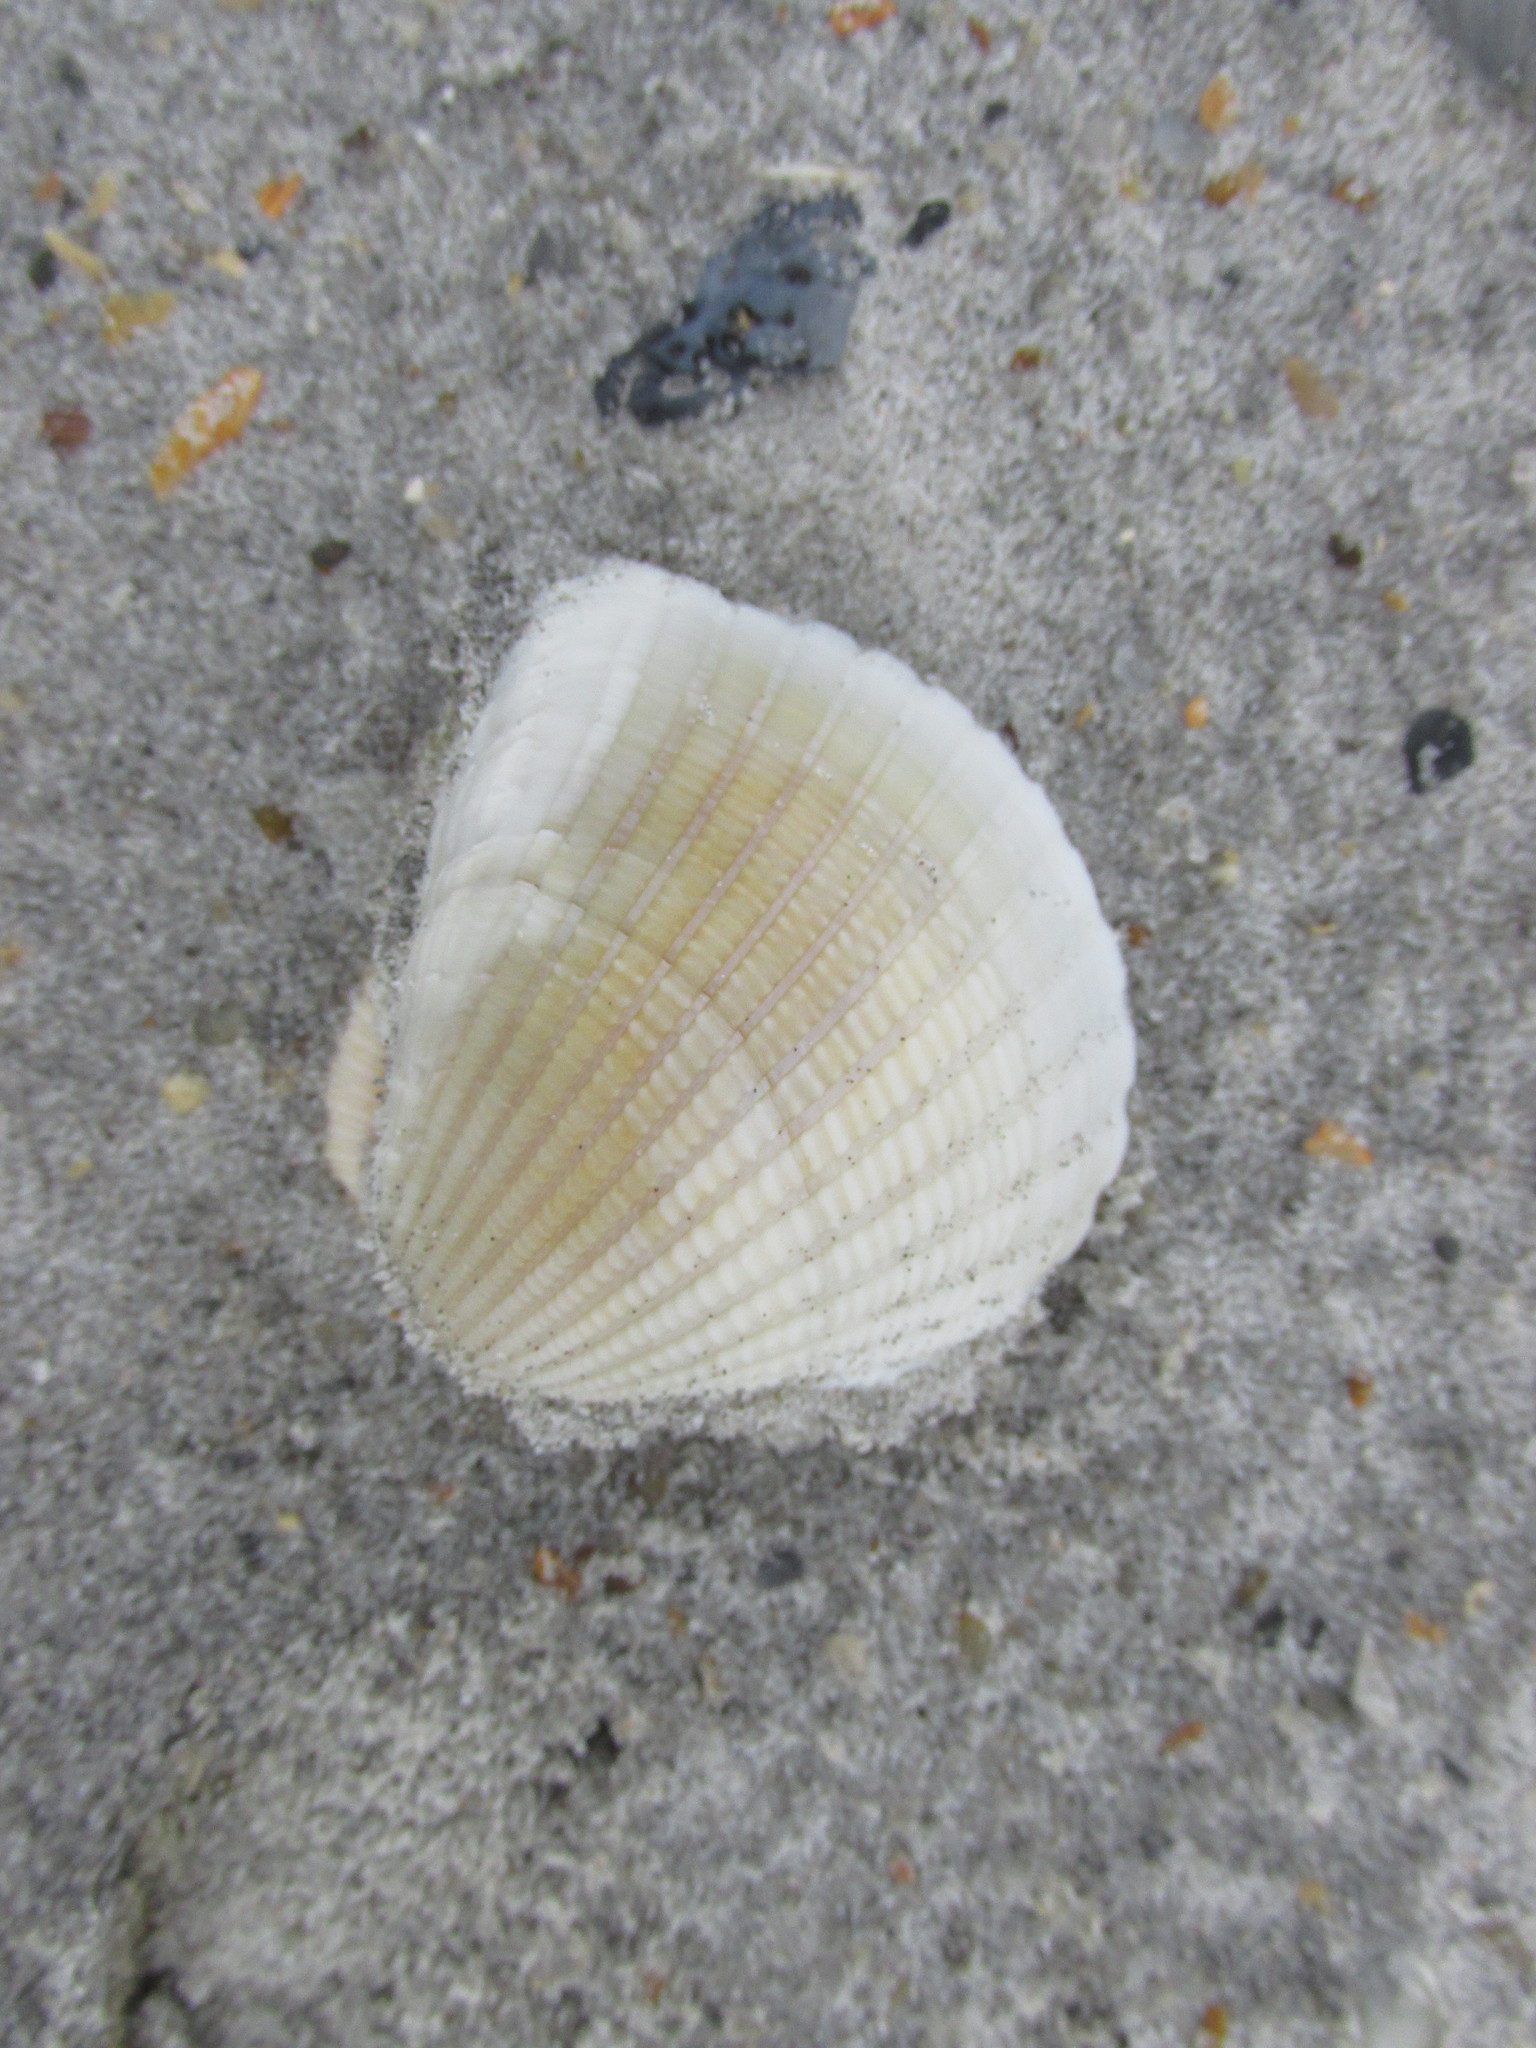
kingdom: Animalia
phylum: Mollusca
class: Bivalvia
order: Arcida
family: Arcidae
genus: Anadara
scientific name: Anadara brasiliana
